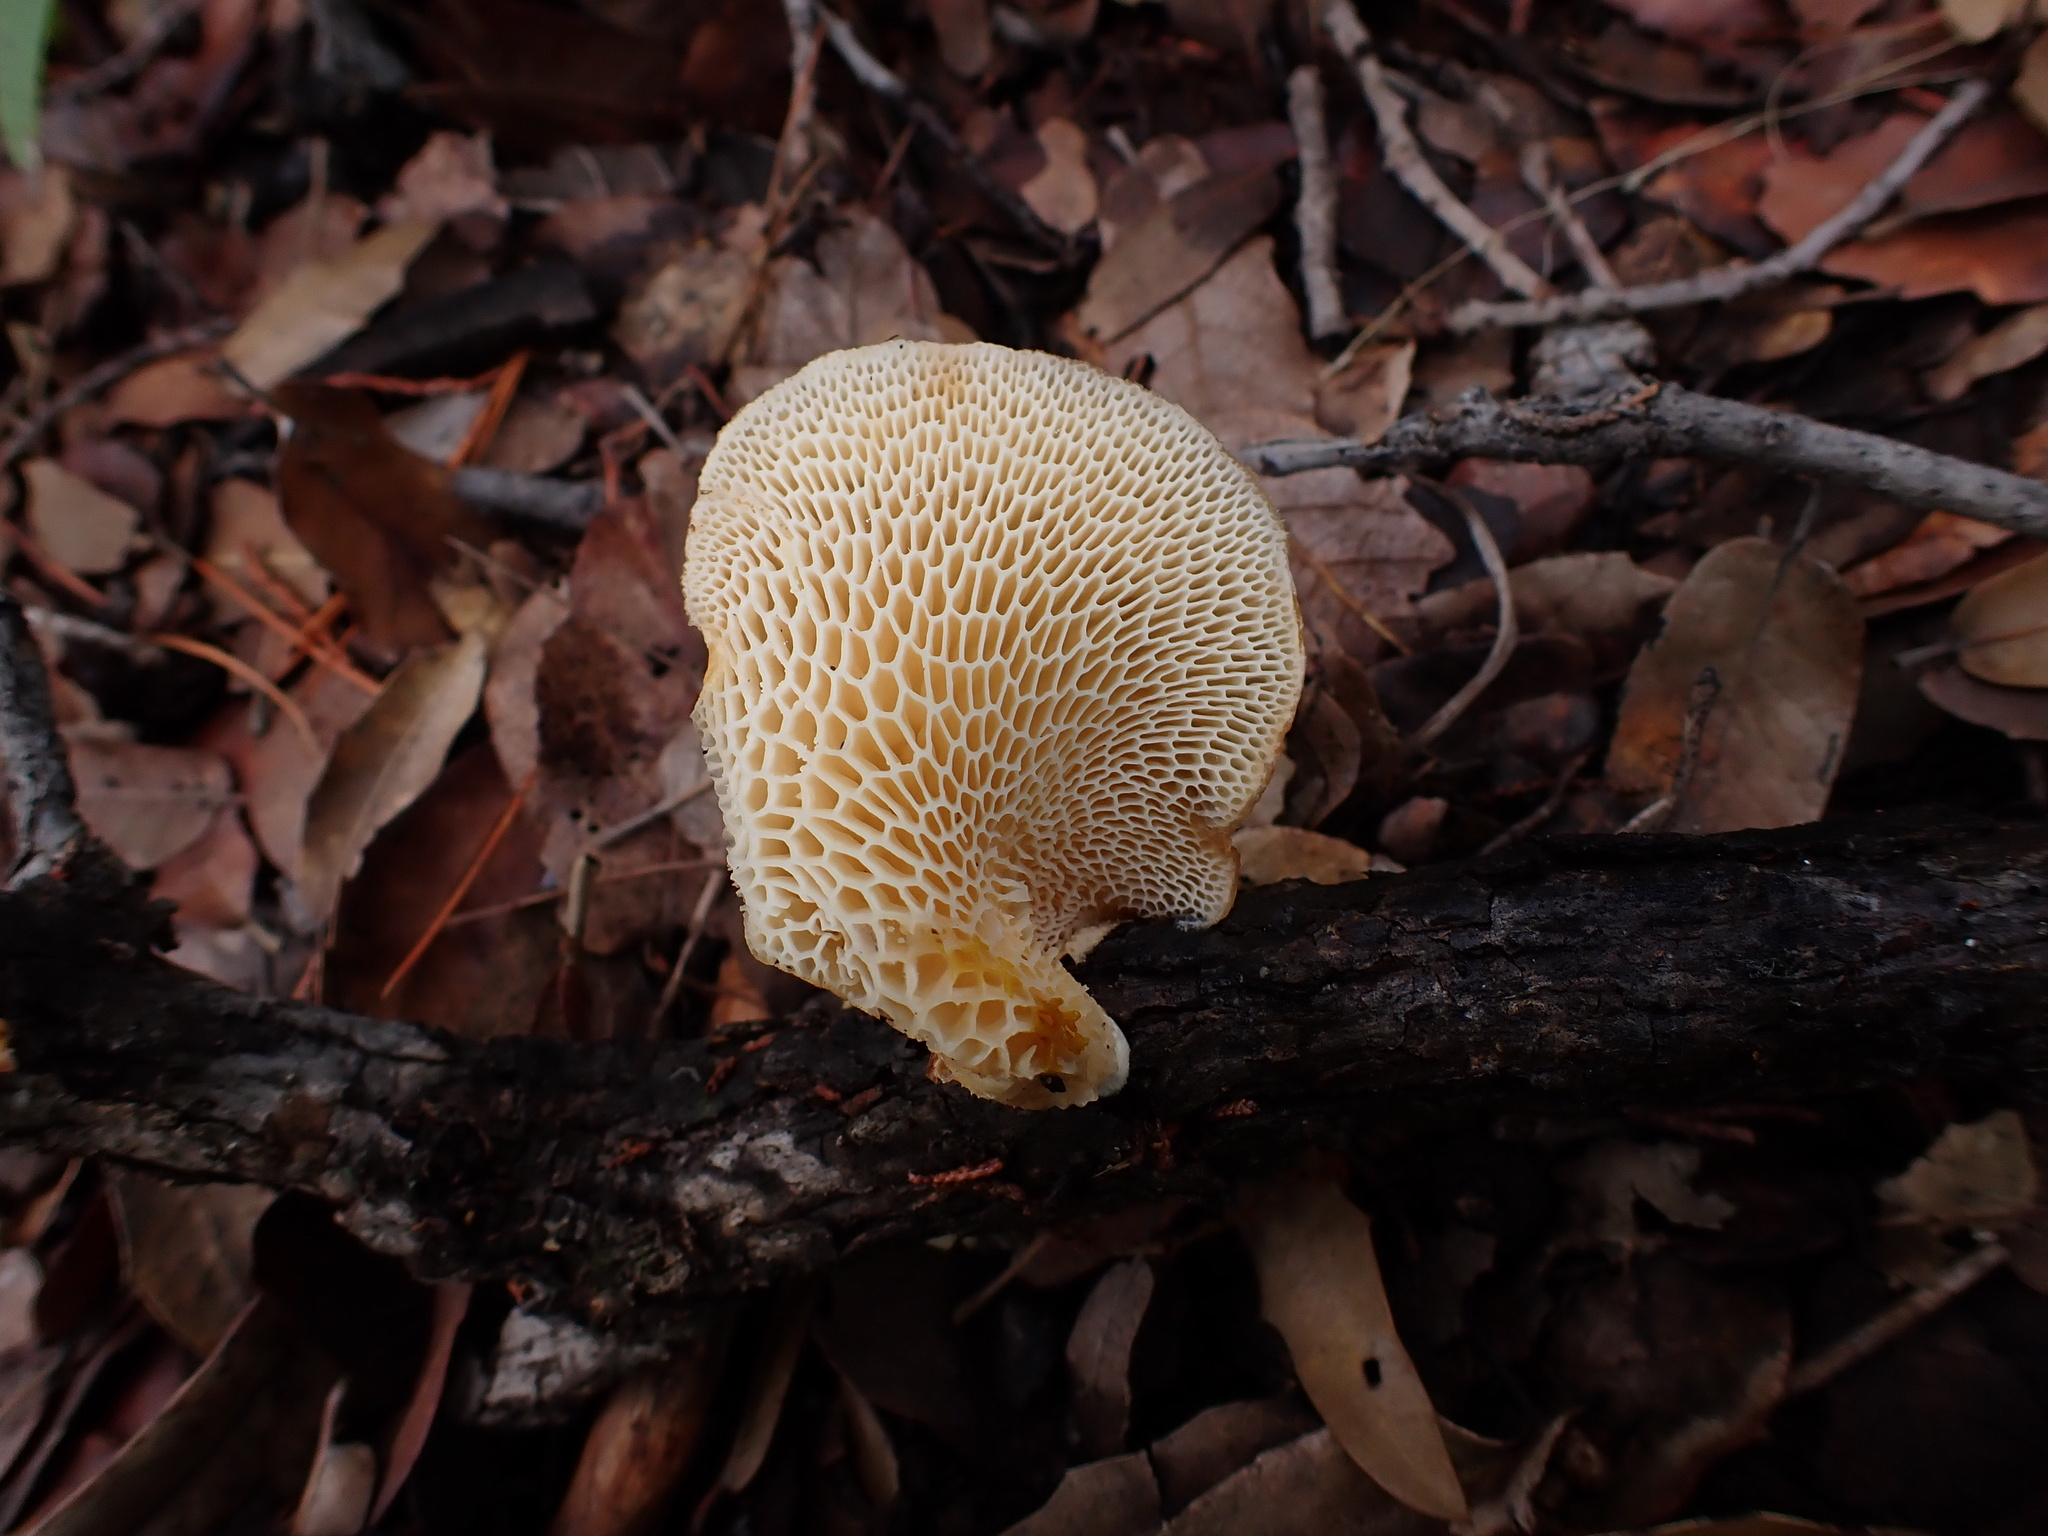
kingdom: Fungi
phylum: Basidiomycota
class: Agaricomycetes
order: Polyporales
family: Polyporaceae
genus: Neofavolus
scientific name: Neofavolus alveolaris
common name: Hexagonal-pored polypore
